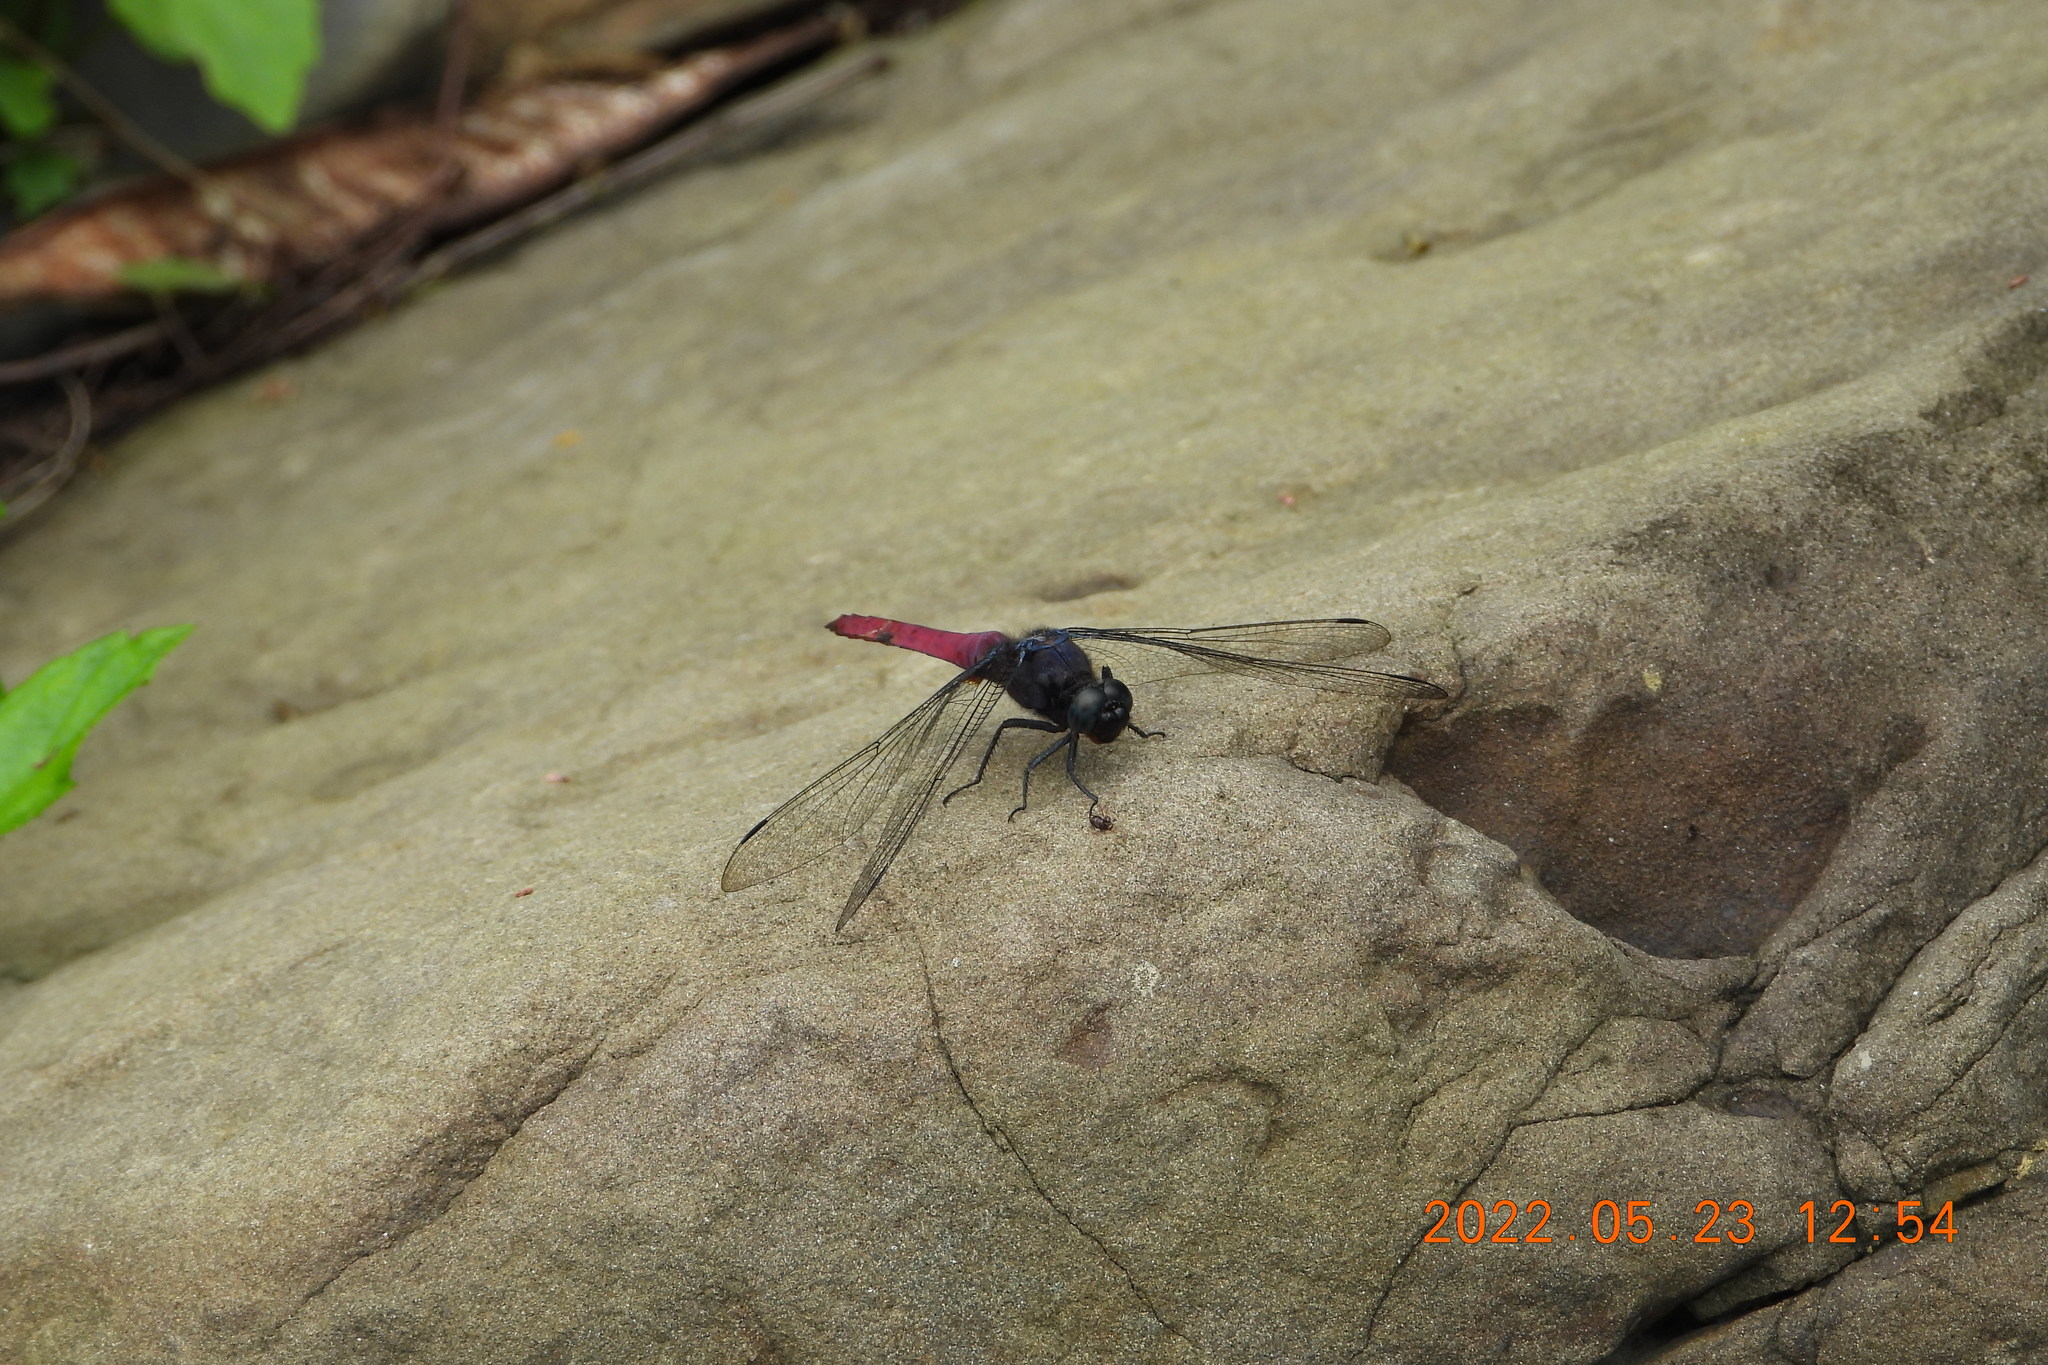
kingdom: Animalia
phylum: Arthropoda
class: Insecta
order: Odonata
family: Libellulidae
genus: Orthetrum
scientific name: Orthetrum pruinosum
